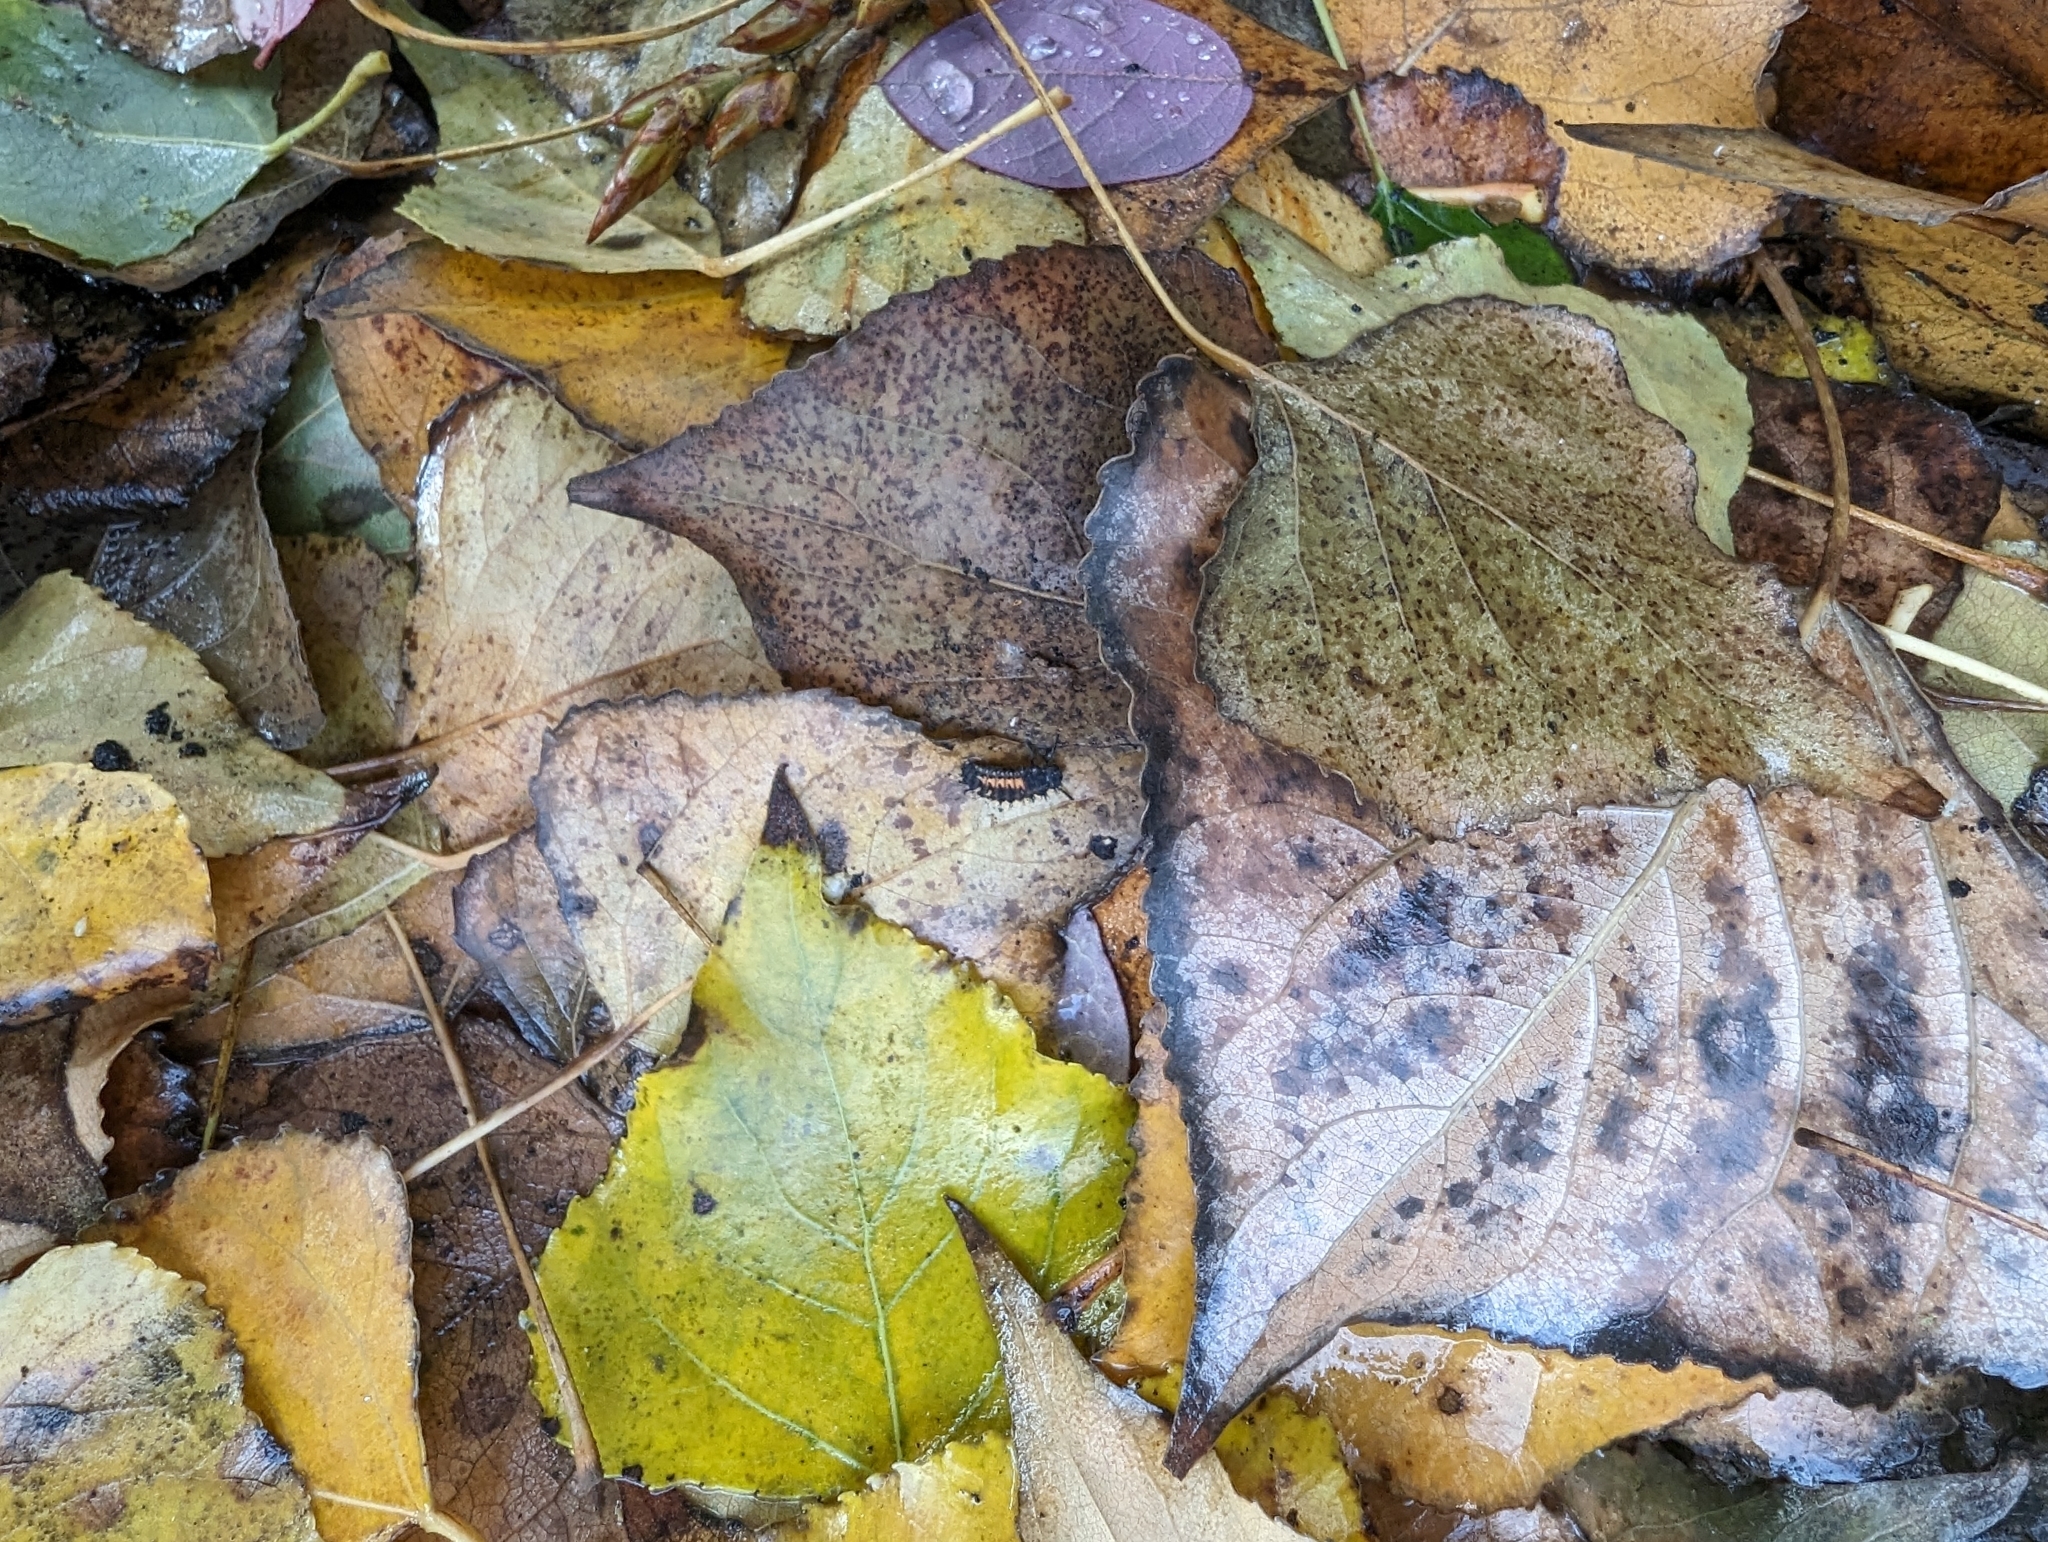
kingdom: Animalia
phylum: Arthropoda
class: Insecta
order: Coleoptera
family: Coccinellidae
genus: Harmonia
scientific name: Harmonia axyridis
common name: Harlequin ladybird
